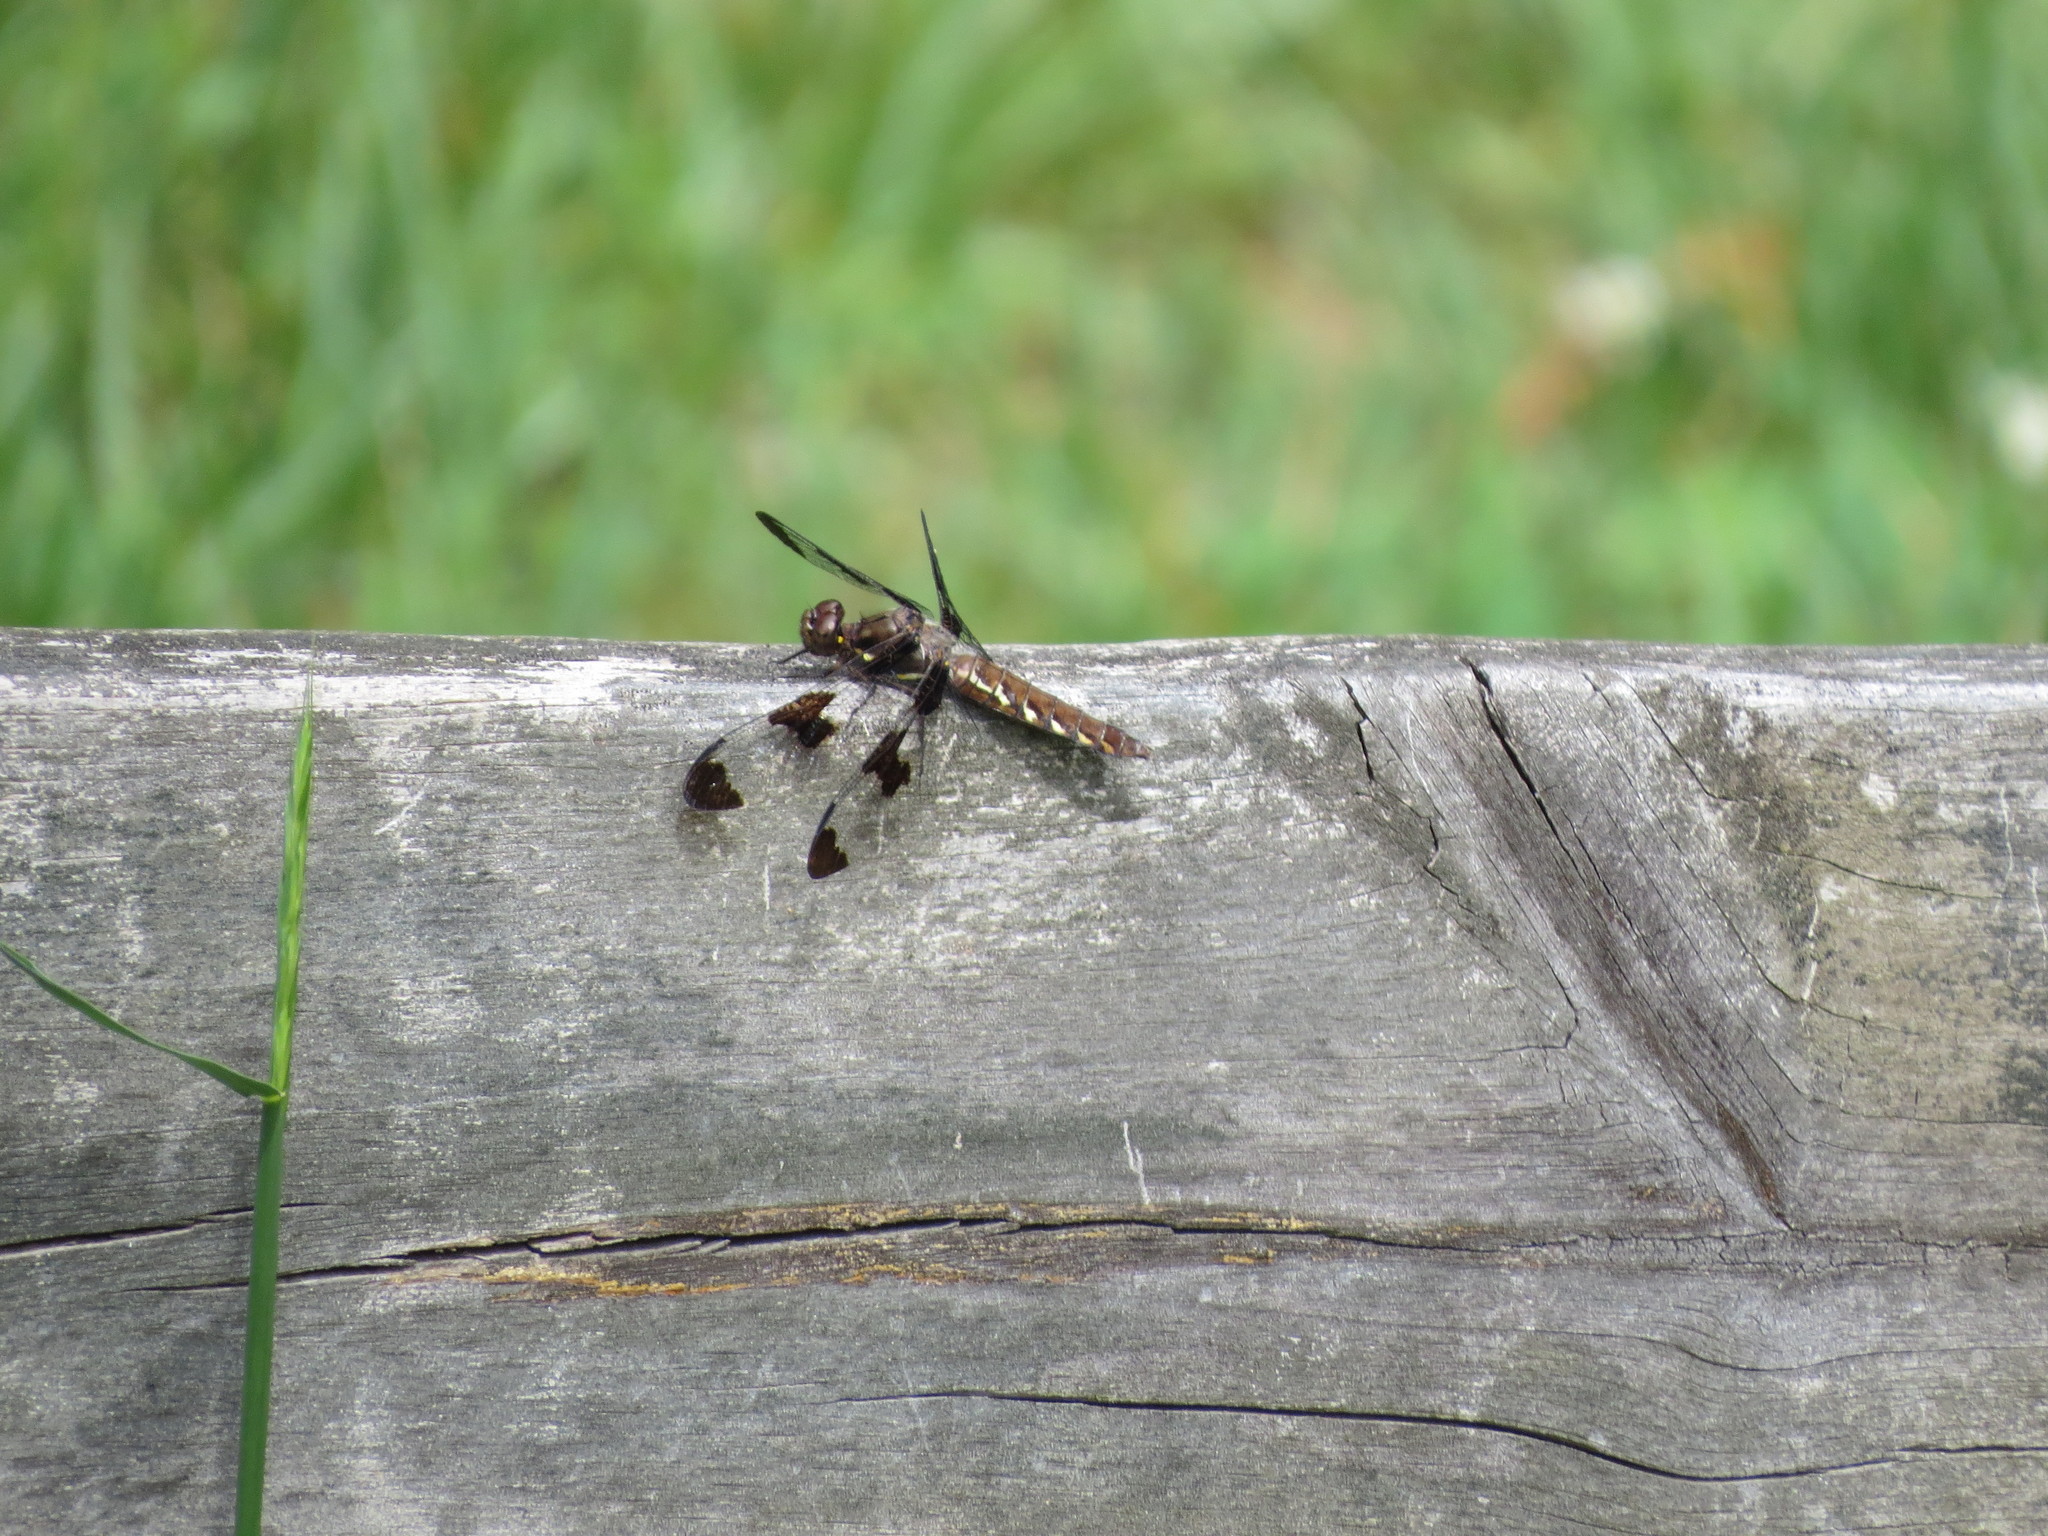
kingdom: Animalia
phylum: Arthropoda
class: Insecta
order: Odonata
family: Libellulidae
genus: Plathemis
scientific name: Plathemis lydia
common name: Common whitetail
